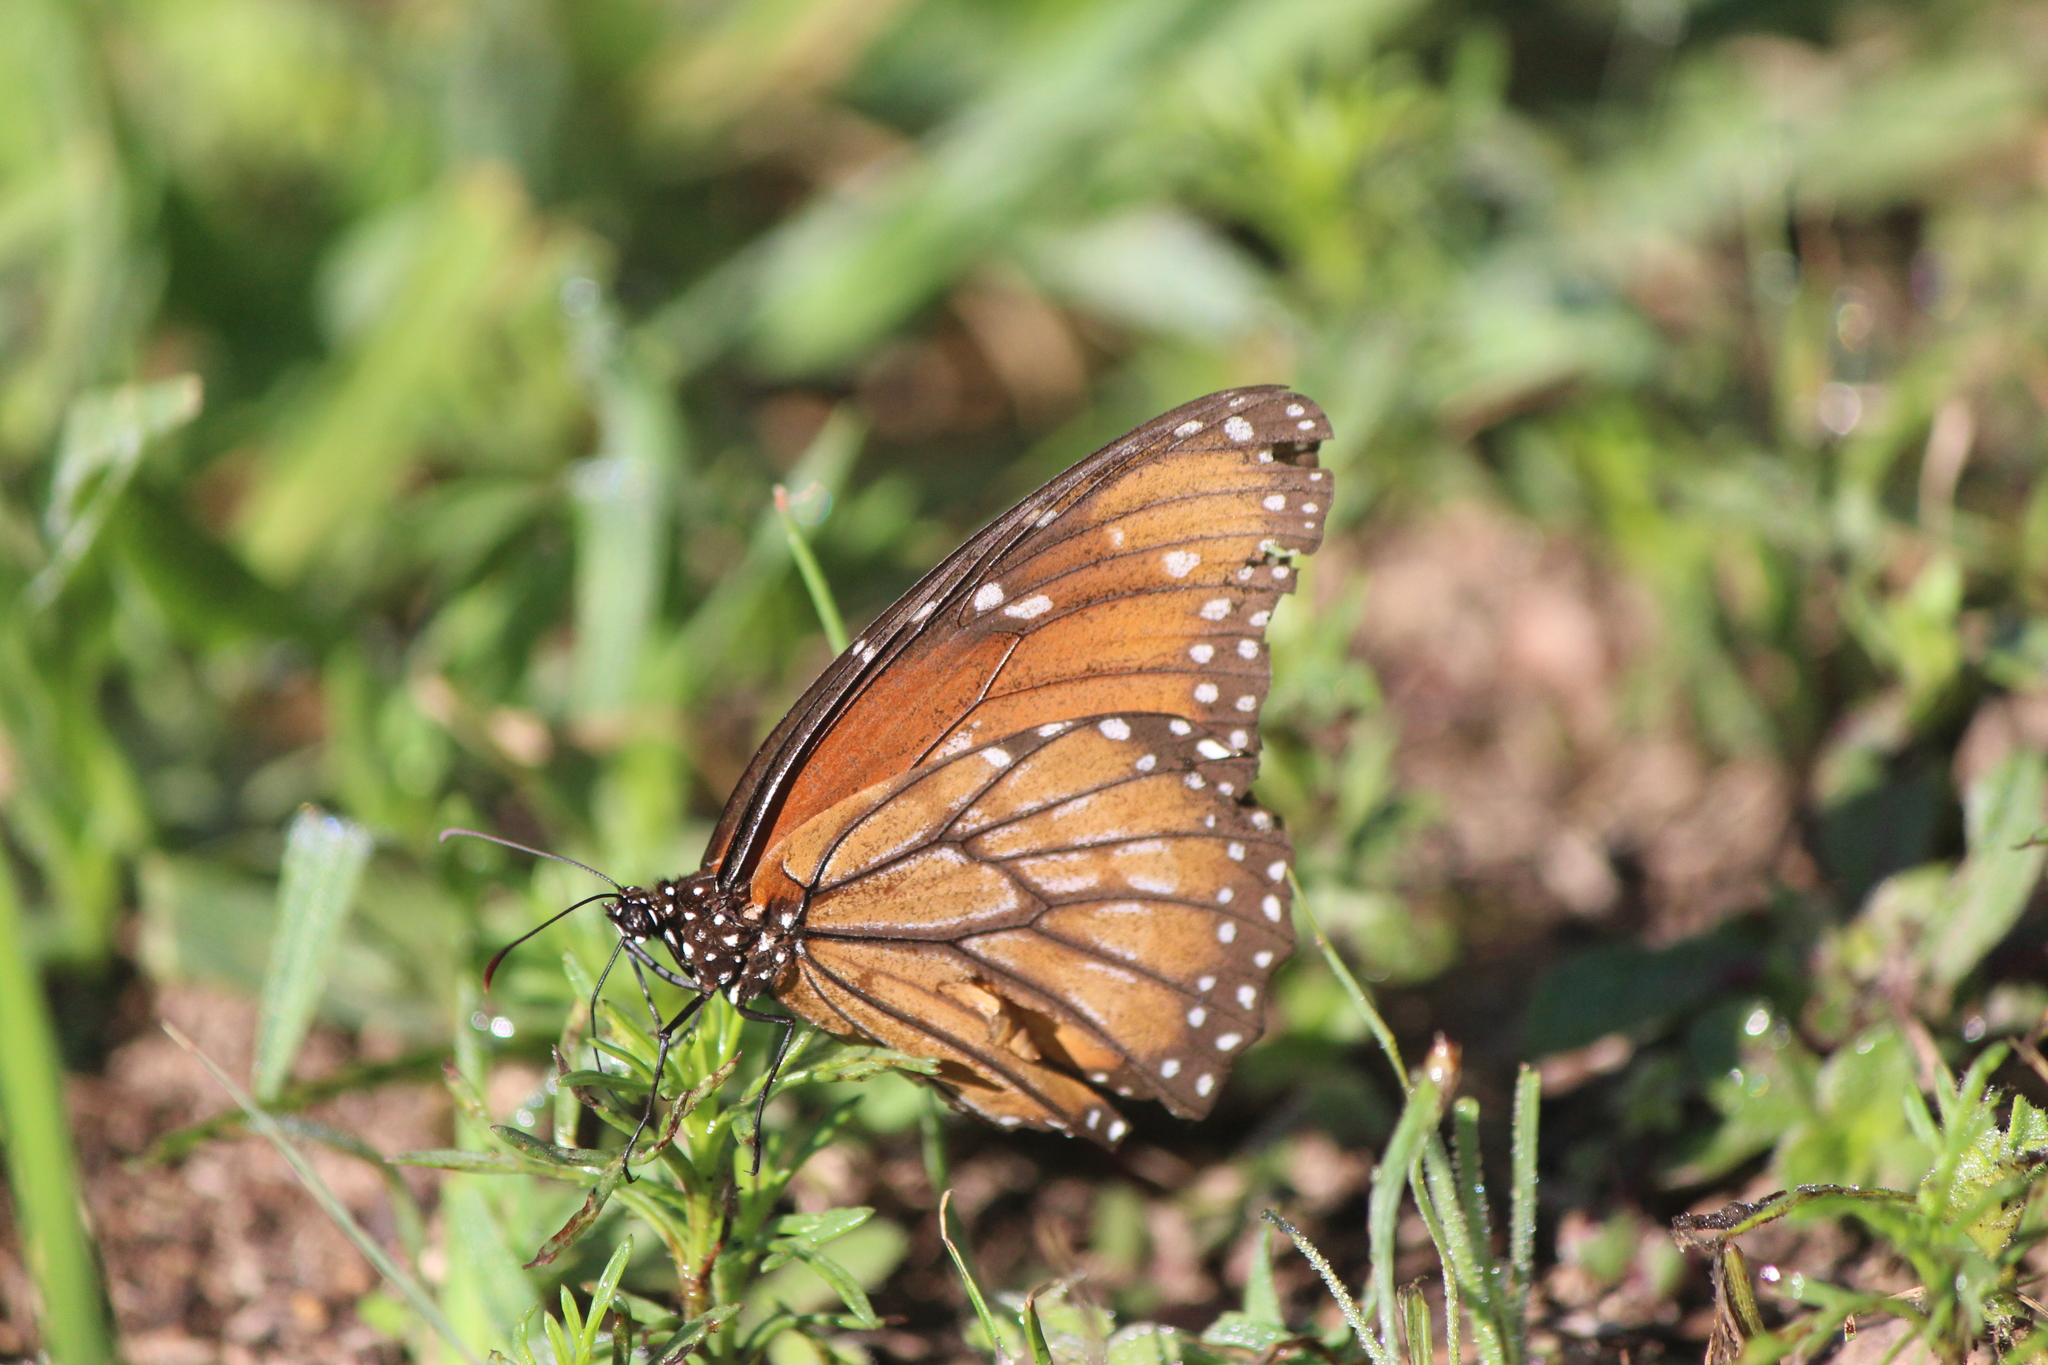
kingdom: Animalia
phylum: Arthropoda
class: Insecta
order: Lepidoptera
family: Nymphalidae
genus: Danaus
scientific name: Danaus gilippus
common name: Queen
